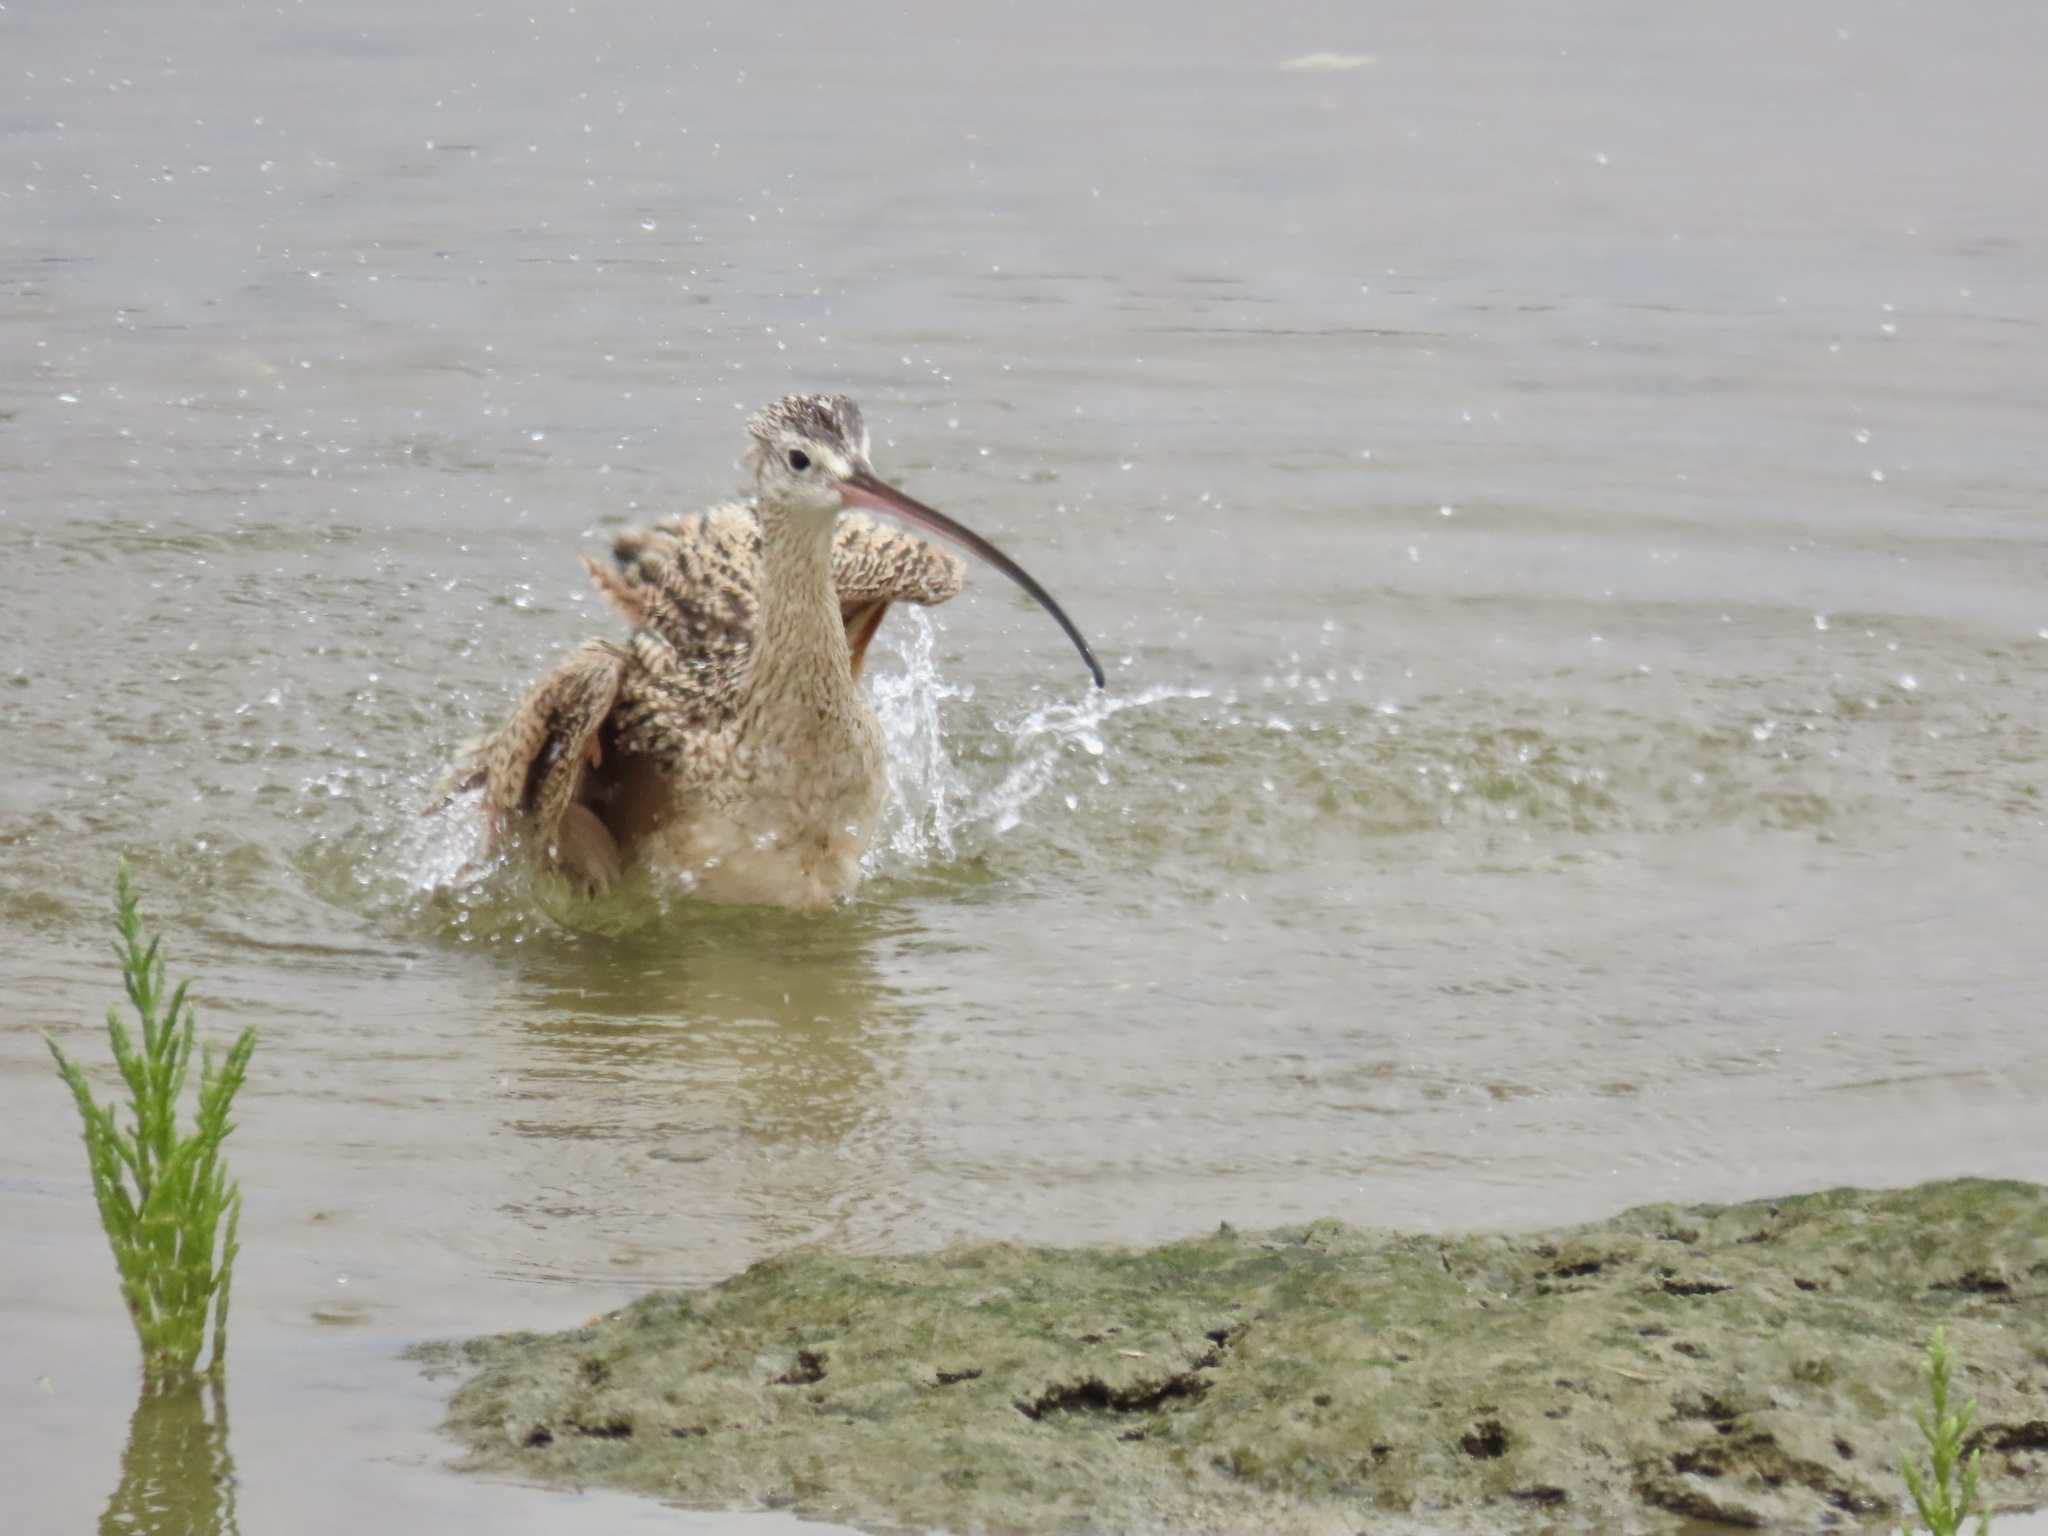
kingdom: Animalia
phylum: Chordata
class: Aves
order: Charadriiformes
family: Scolopacidae
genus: Numenius
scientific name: Numenius americanus
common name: Long-billed curlew
